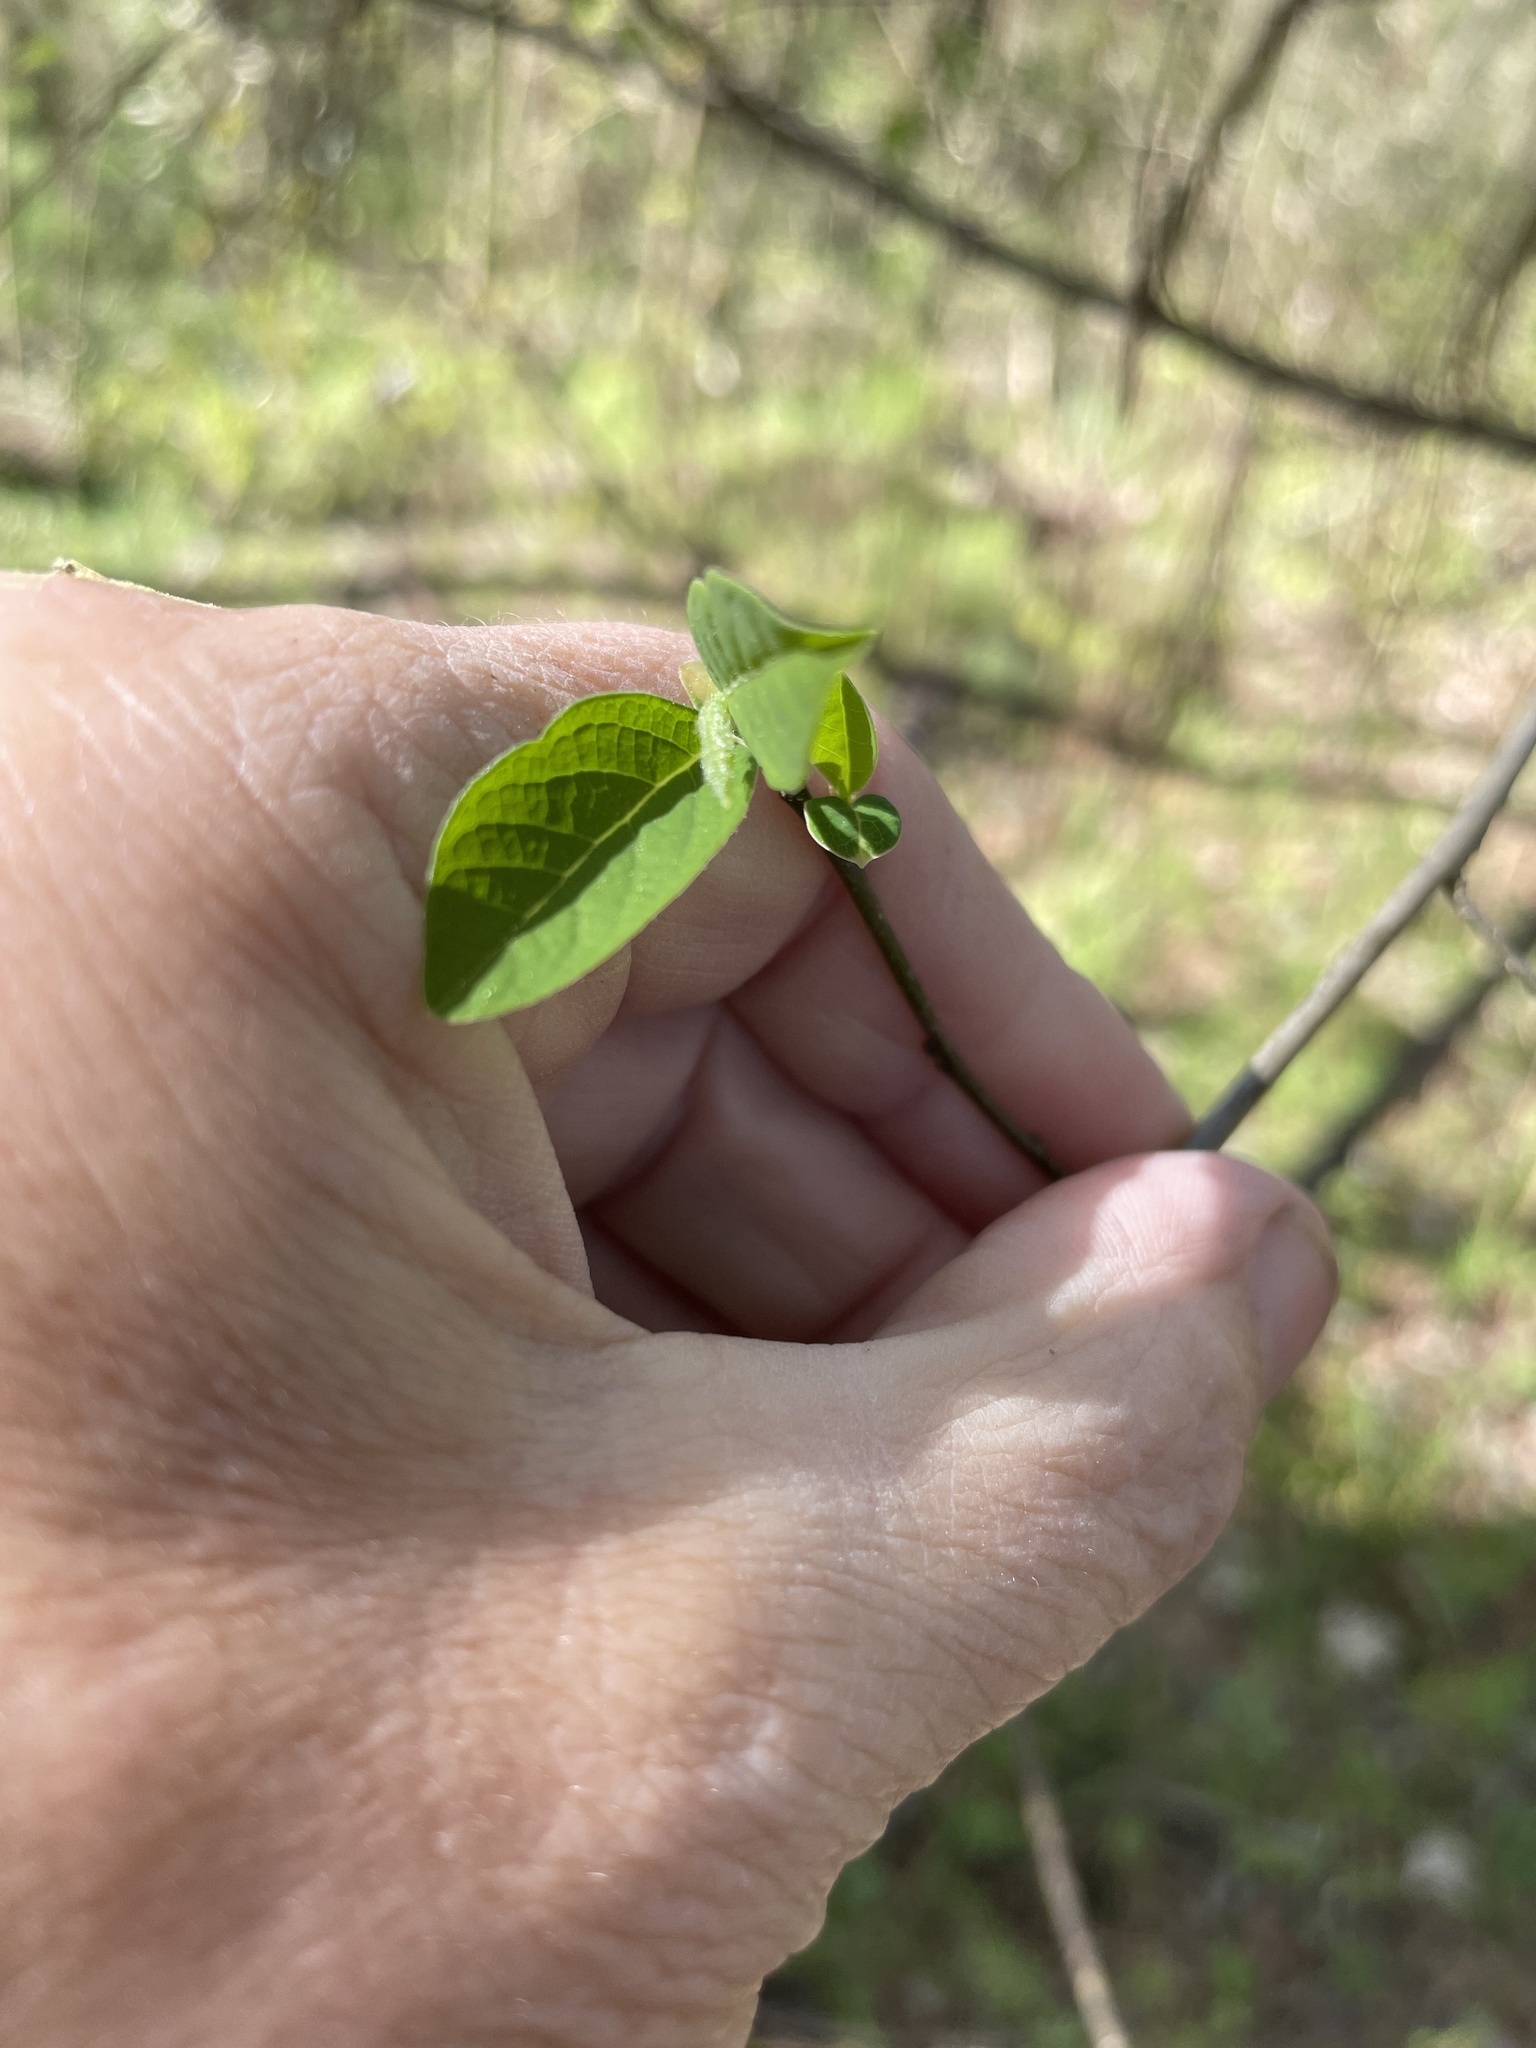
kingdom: Plantae
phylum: Tracheophyta
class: Magnoliopsida
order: Laurales
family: Lauraceae
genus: Lindera
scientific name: Lindera benzoin
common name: Spicebush
